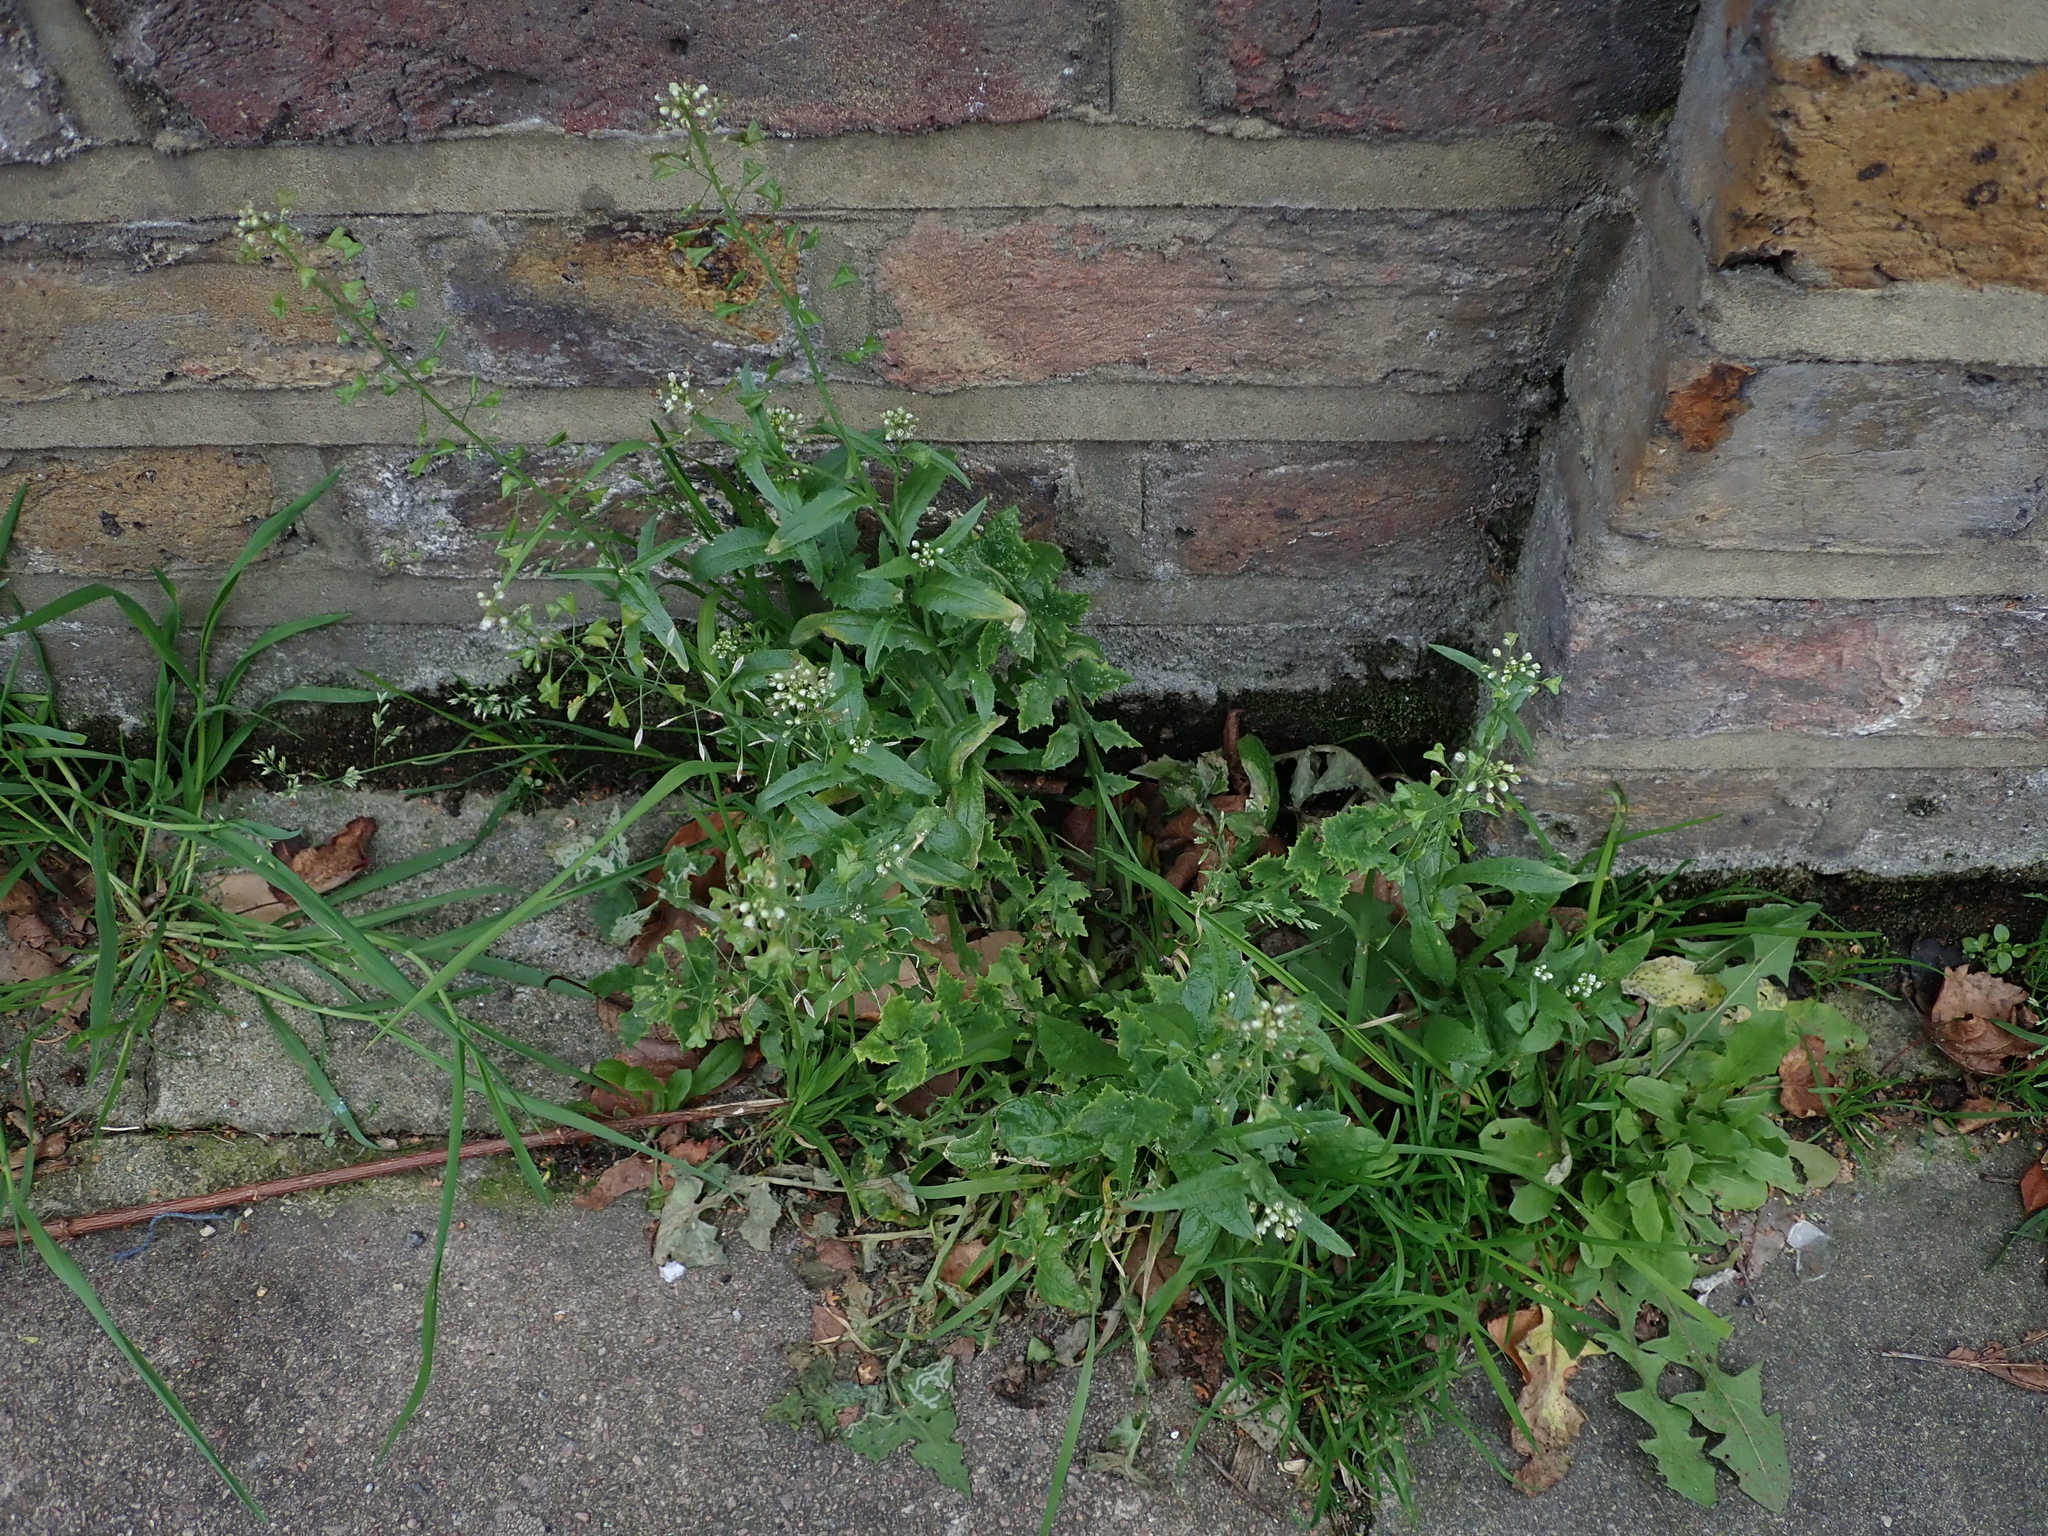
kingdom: Plantae
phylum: Tracheophyta
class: Magnoliopsida
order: Brassicales
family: Brassicaceae
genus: Capsella
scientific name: Capsella bursa-pastoris
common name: Shepherd's purse
